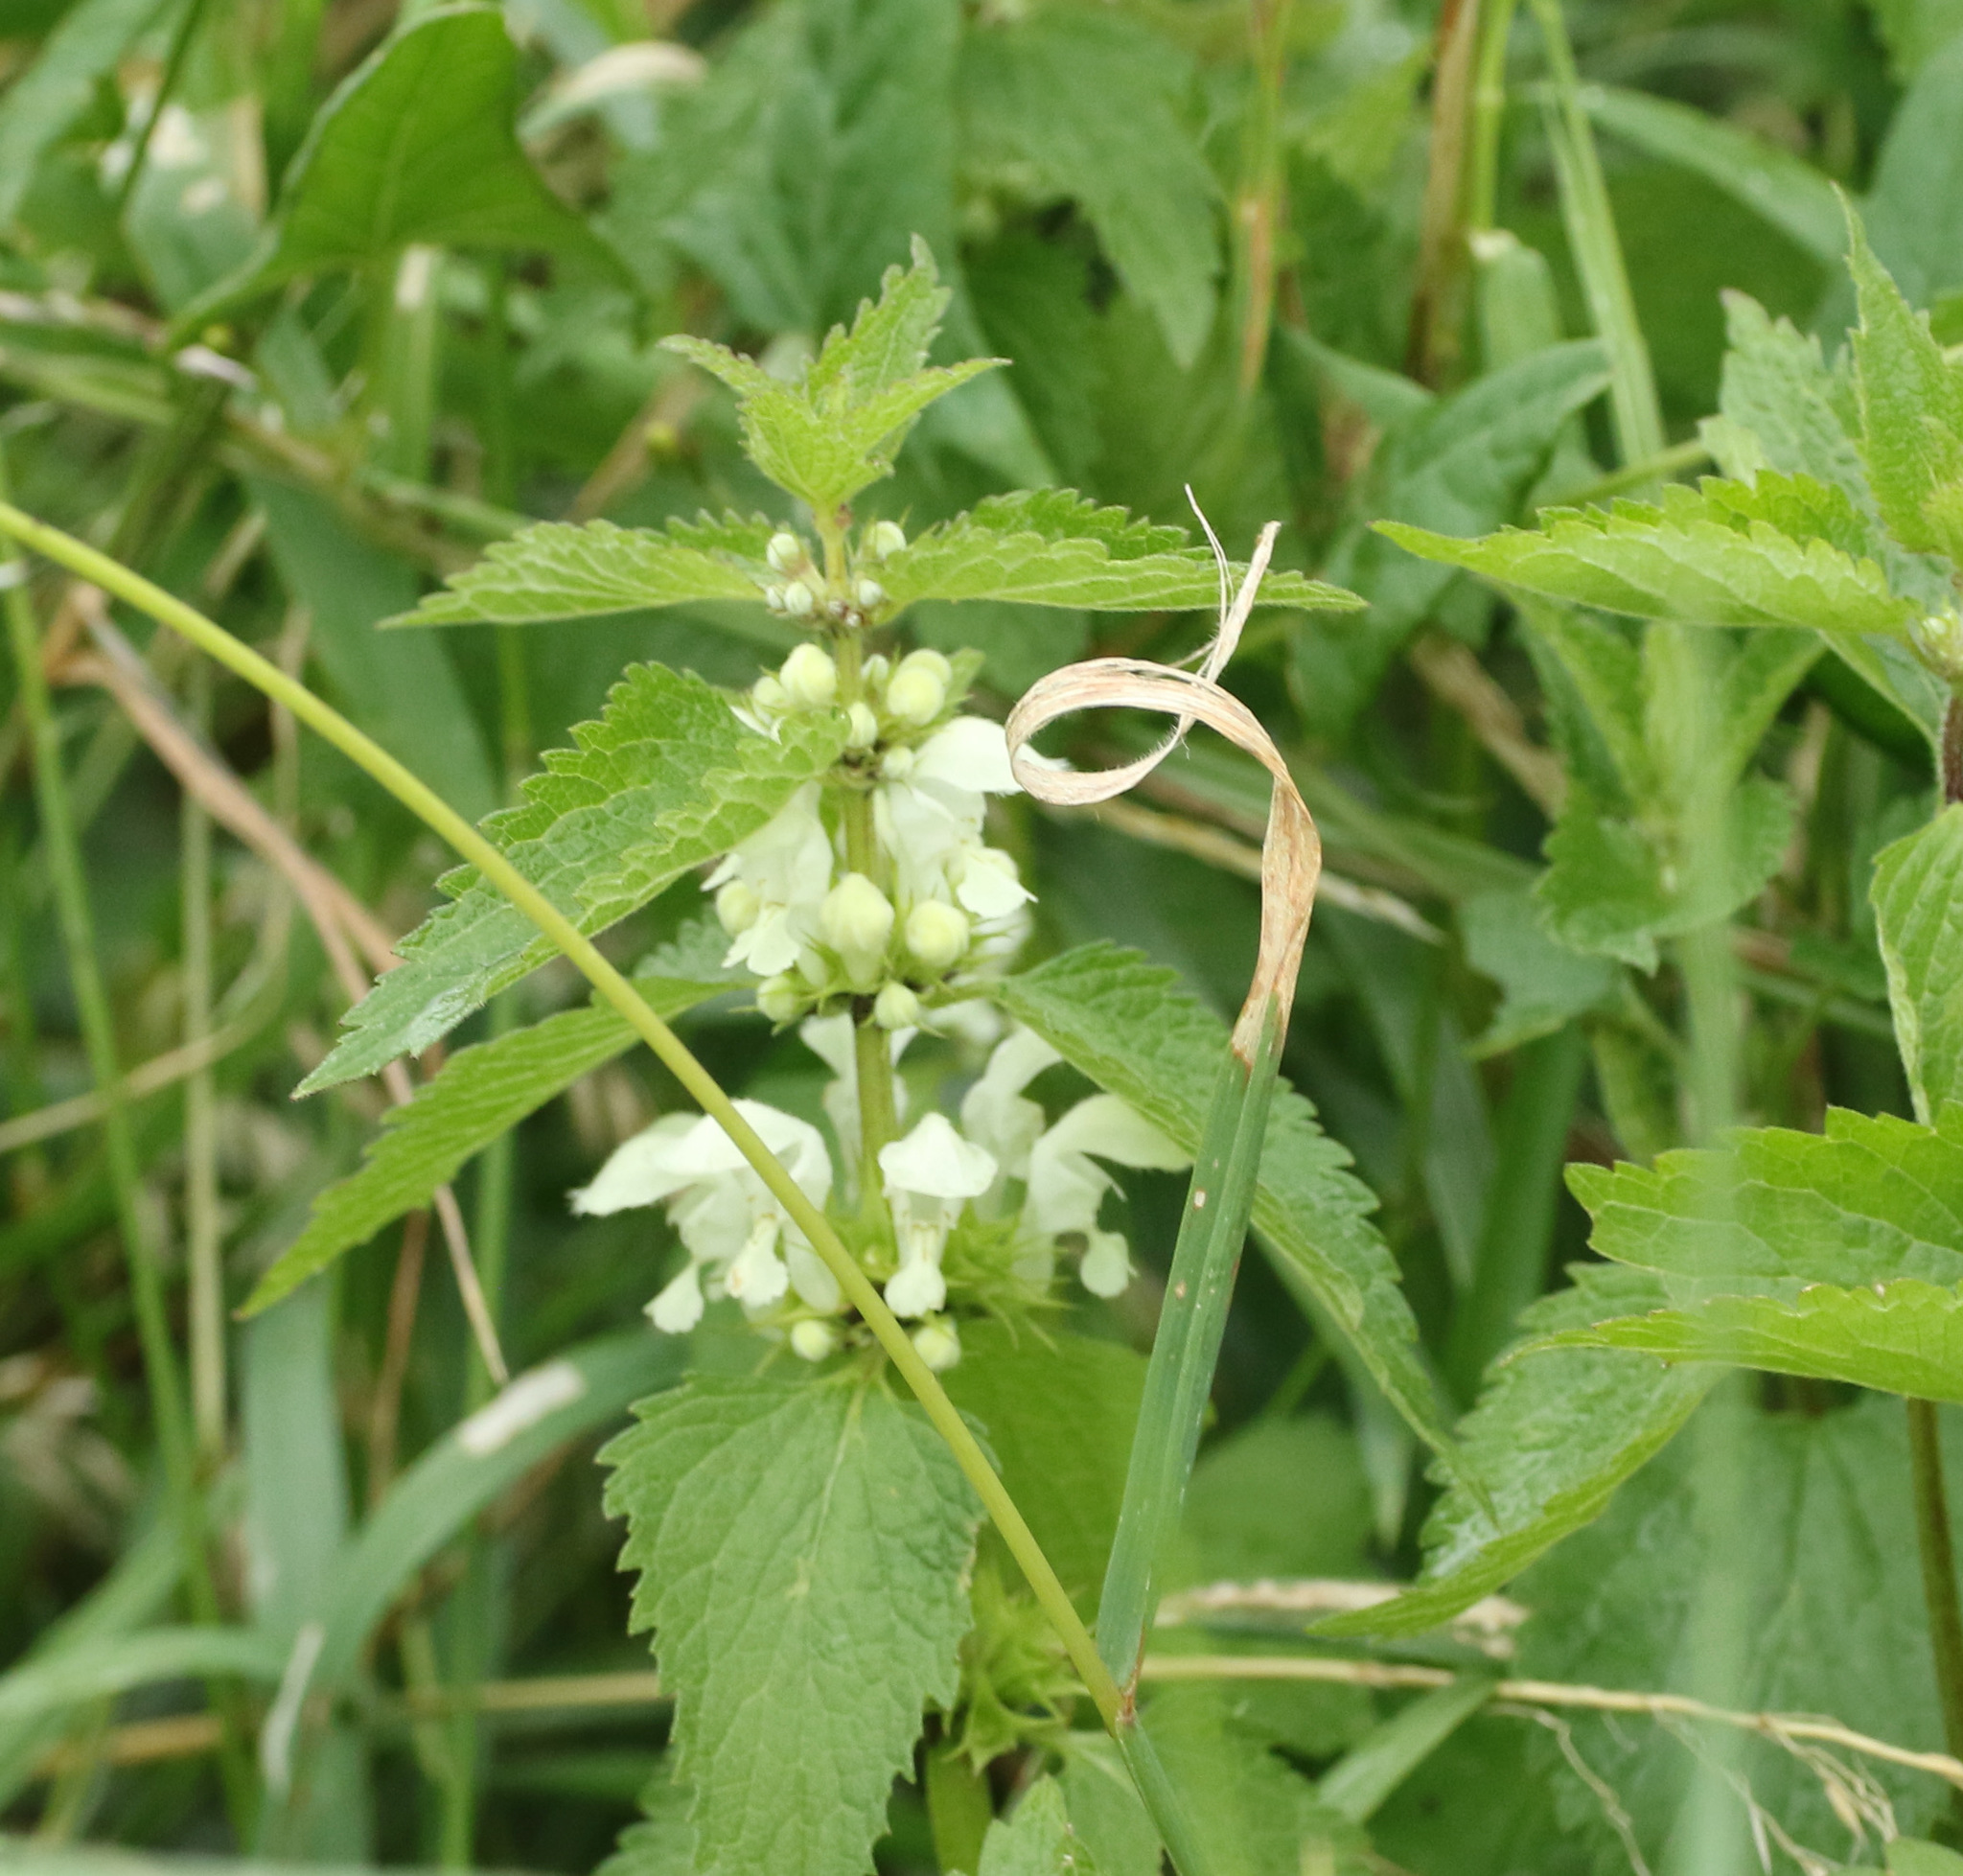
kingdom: Plantae
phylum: Tracheophyta
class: Magnoliopsida
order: Lamiales
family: Lamiaceae
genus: Lamium
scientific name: Lamium album
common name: White dead-nettle
